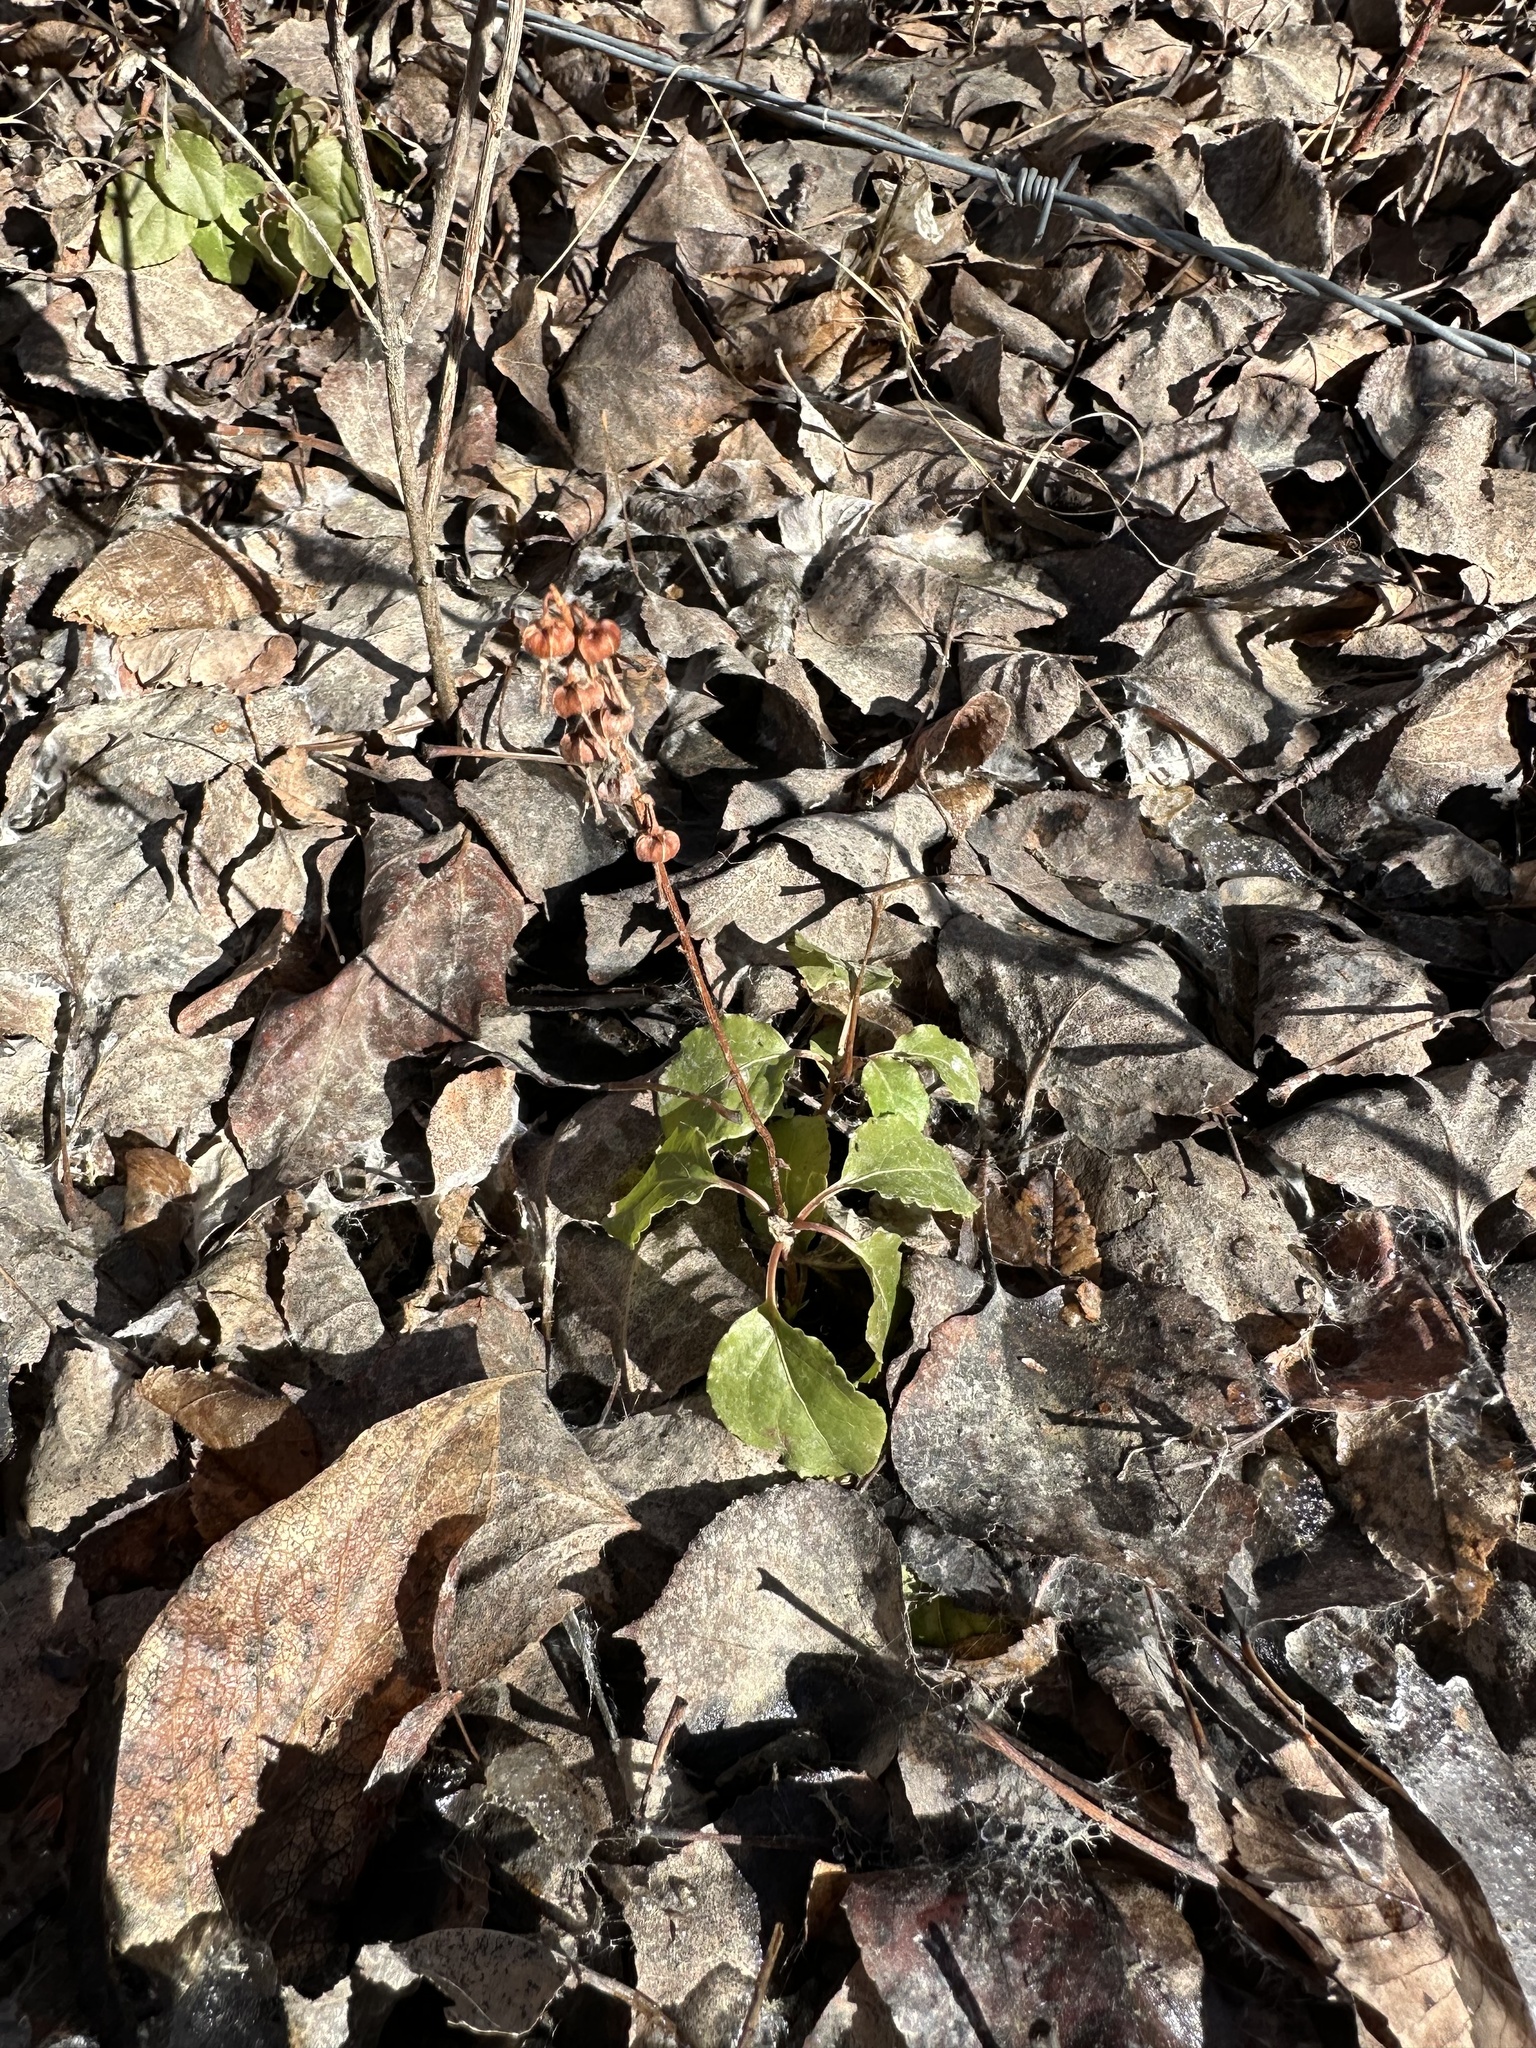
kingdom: Plantae
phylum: Tracheophyta
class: Magnoliopsida
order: Ericales
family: Ericaceae
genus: Orthilia
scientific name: Orthilia secunda
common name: One-sided orthilia
